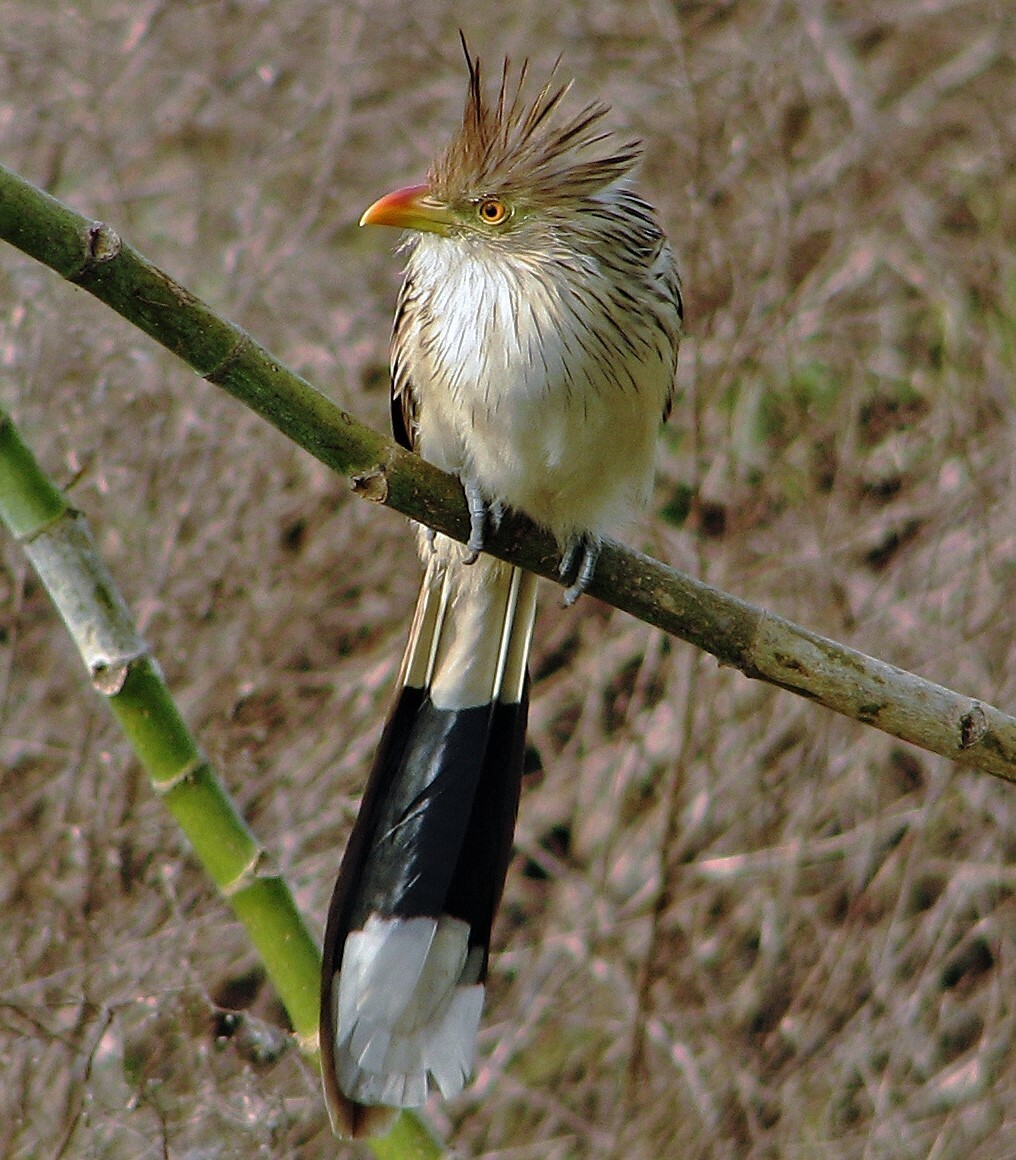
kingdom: Animalia
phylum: Chordata
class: Aves
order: Cuculiformes
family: Cuculidae
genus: Guira
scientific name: Guira guira
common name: Guira cuckoo
